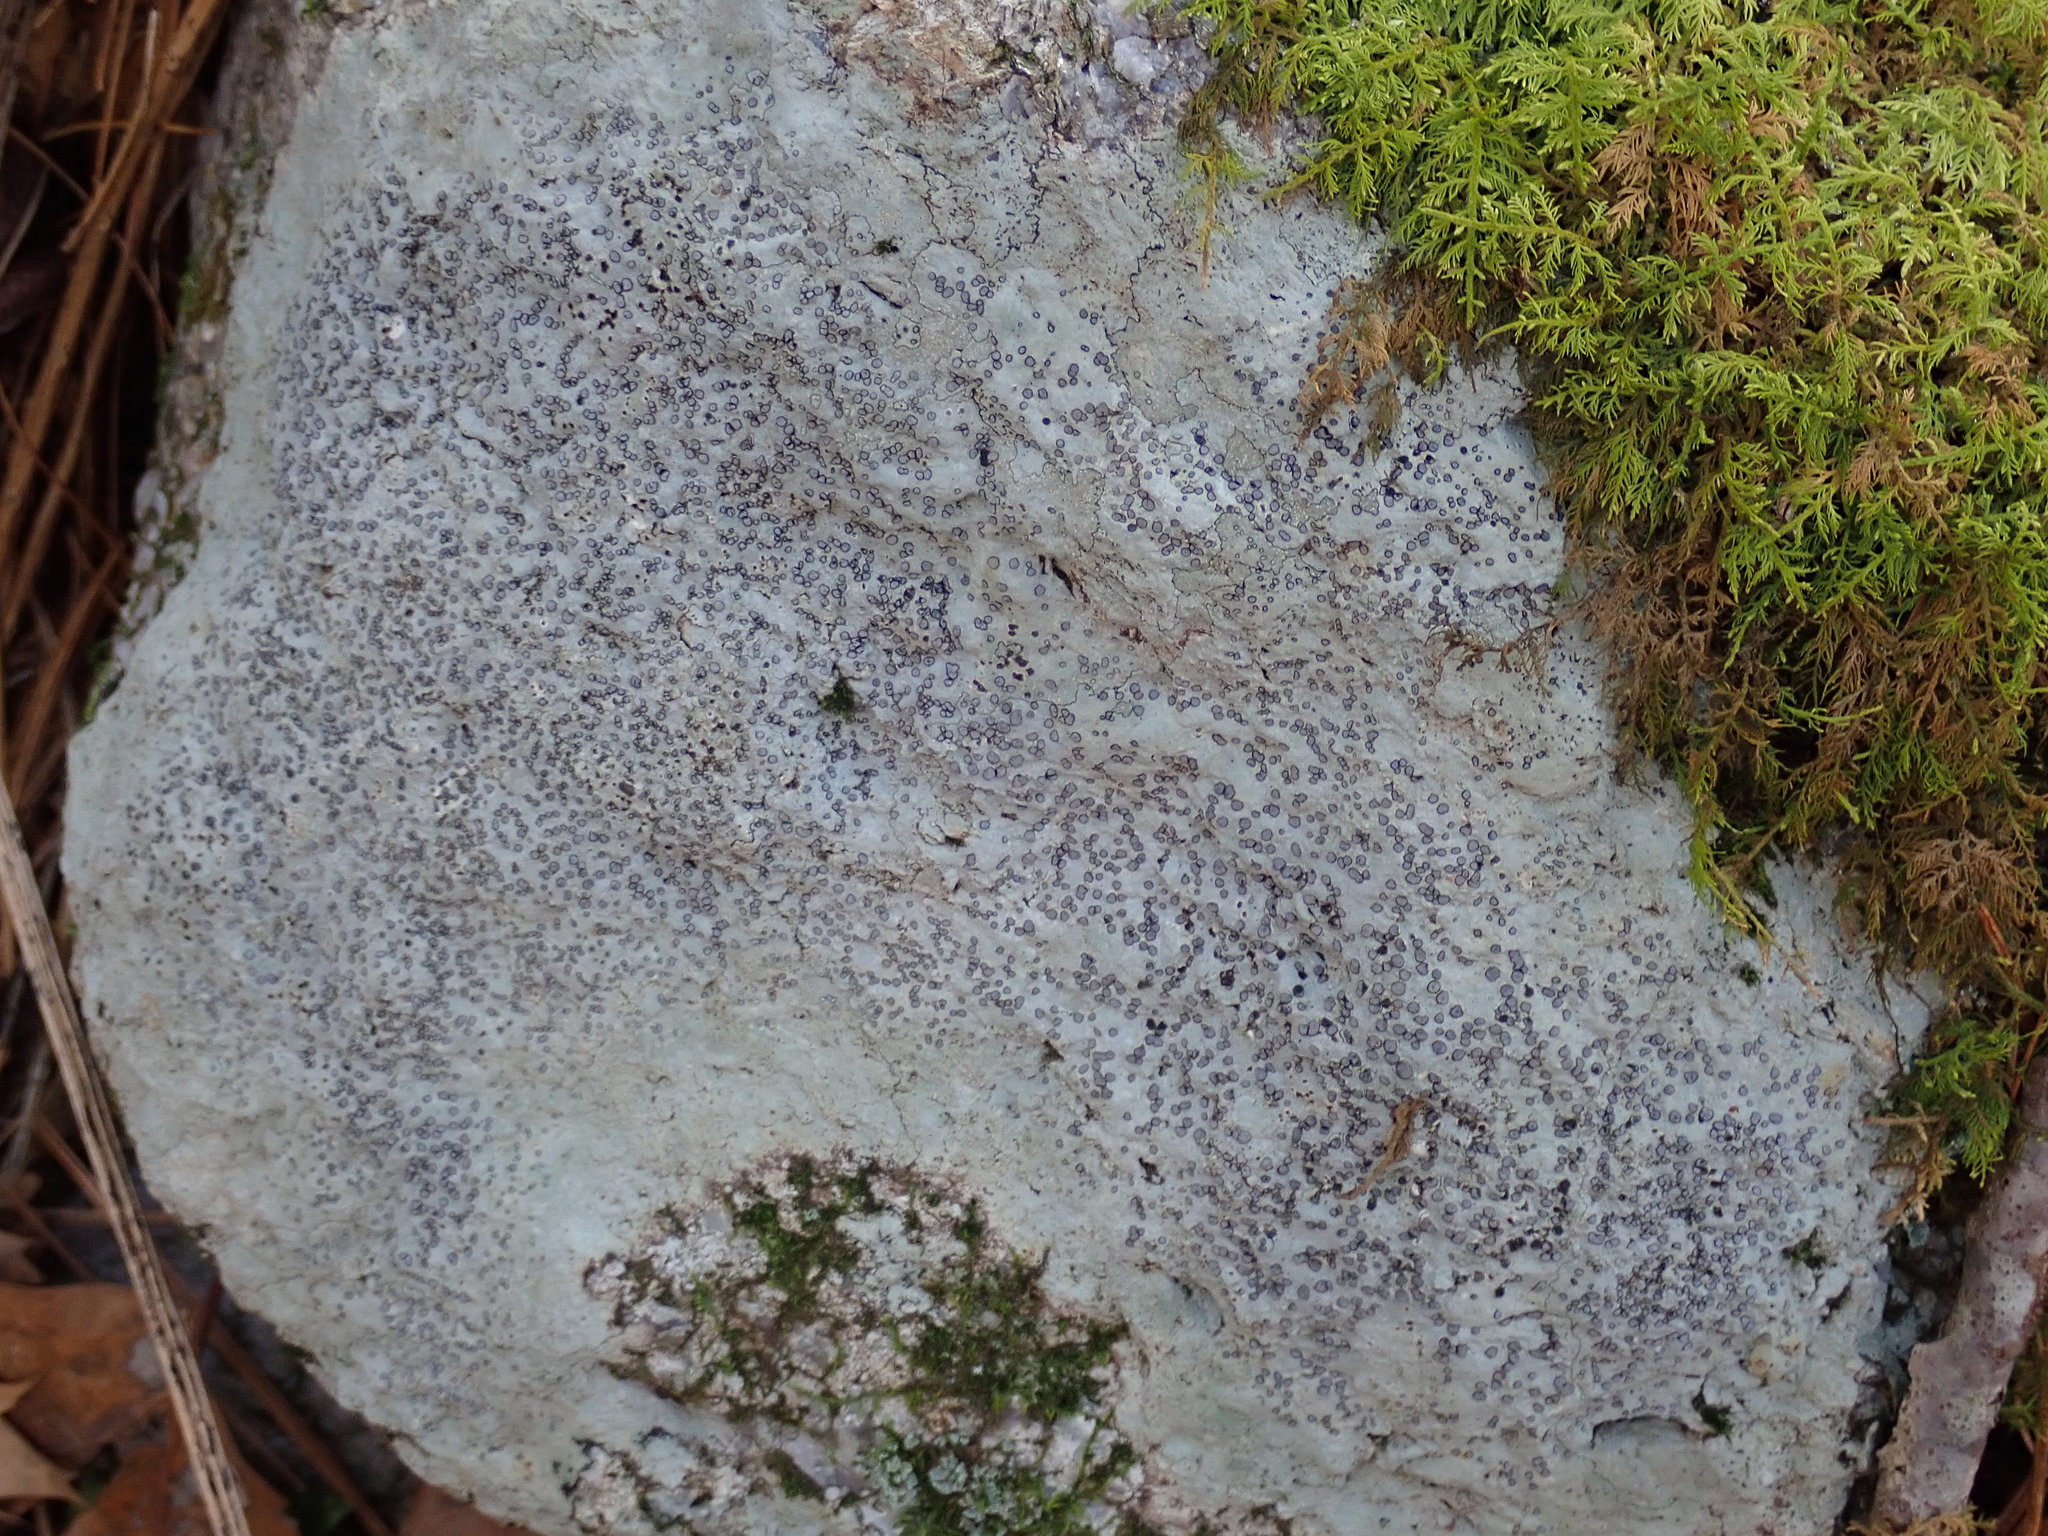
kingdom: Fungi
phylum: Ascomycota
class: Lecanoromycetes
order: Lecideales
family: Lecideaceae
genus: Porpidia
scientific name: Porpidia albocaerulescens
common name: Smokey-eyed boulder lichen
